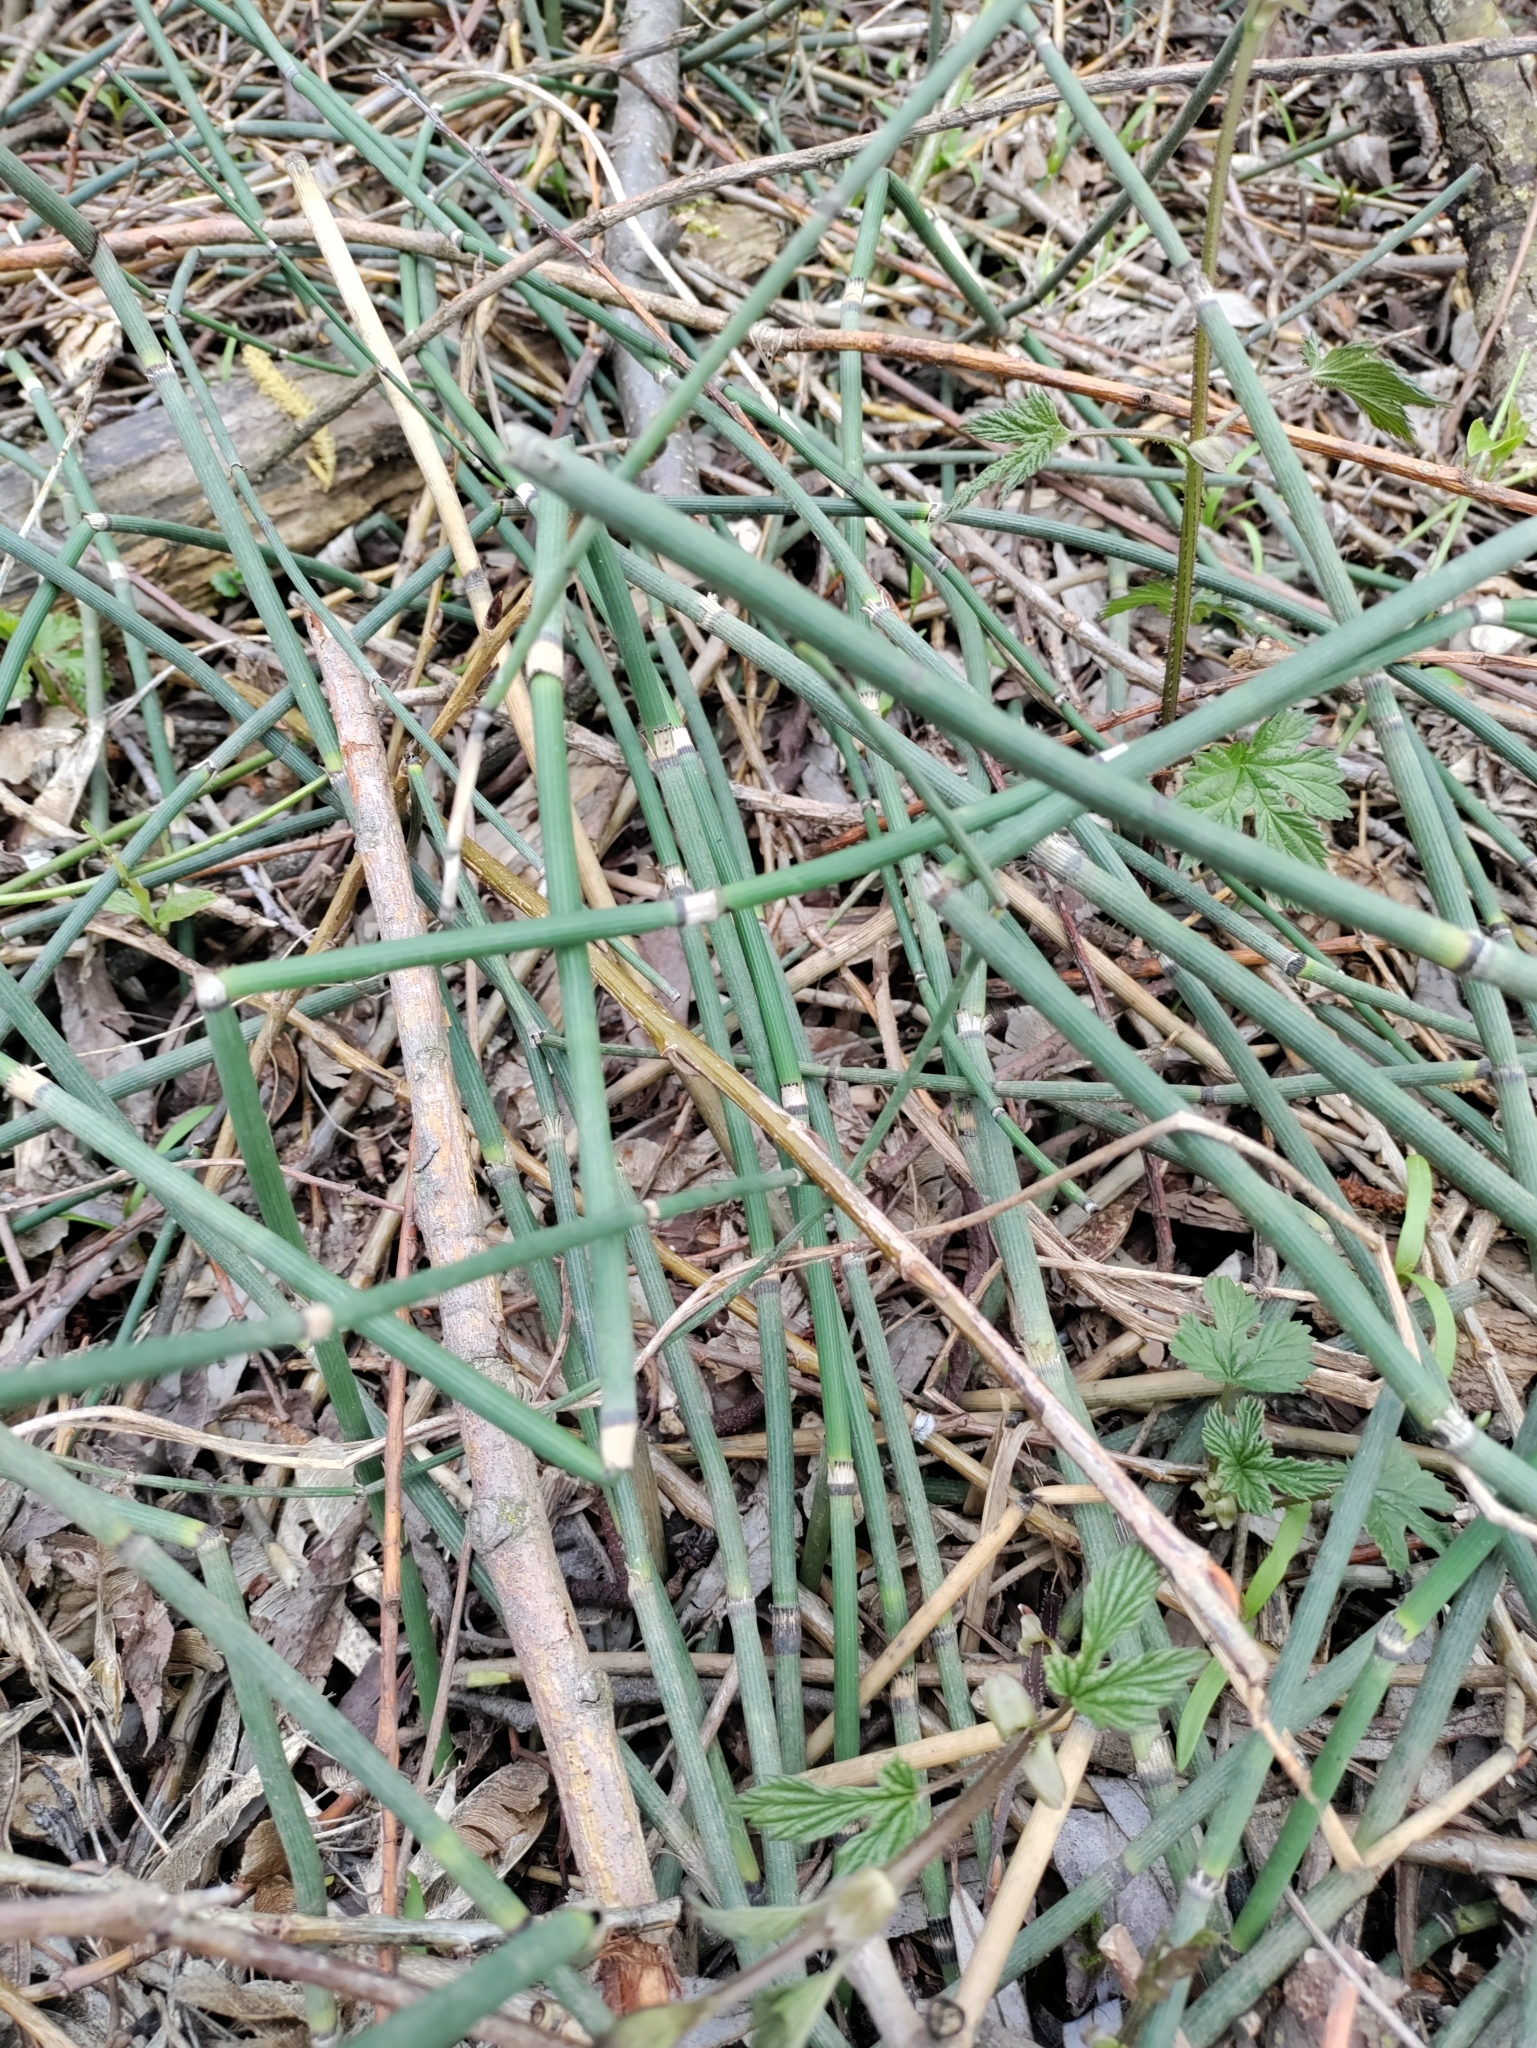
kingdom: Plantae
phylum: Tracheophyta
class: Polypodiopsida
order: Equisetales
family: Equisetaceae
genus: Equisetum
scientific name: Equisetum hyemale
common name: Rough horsetail
